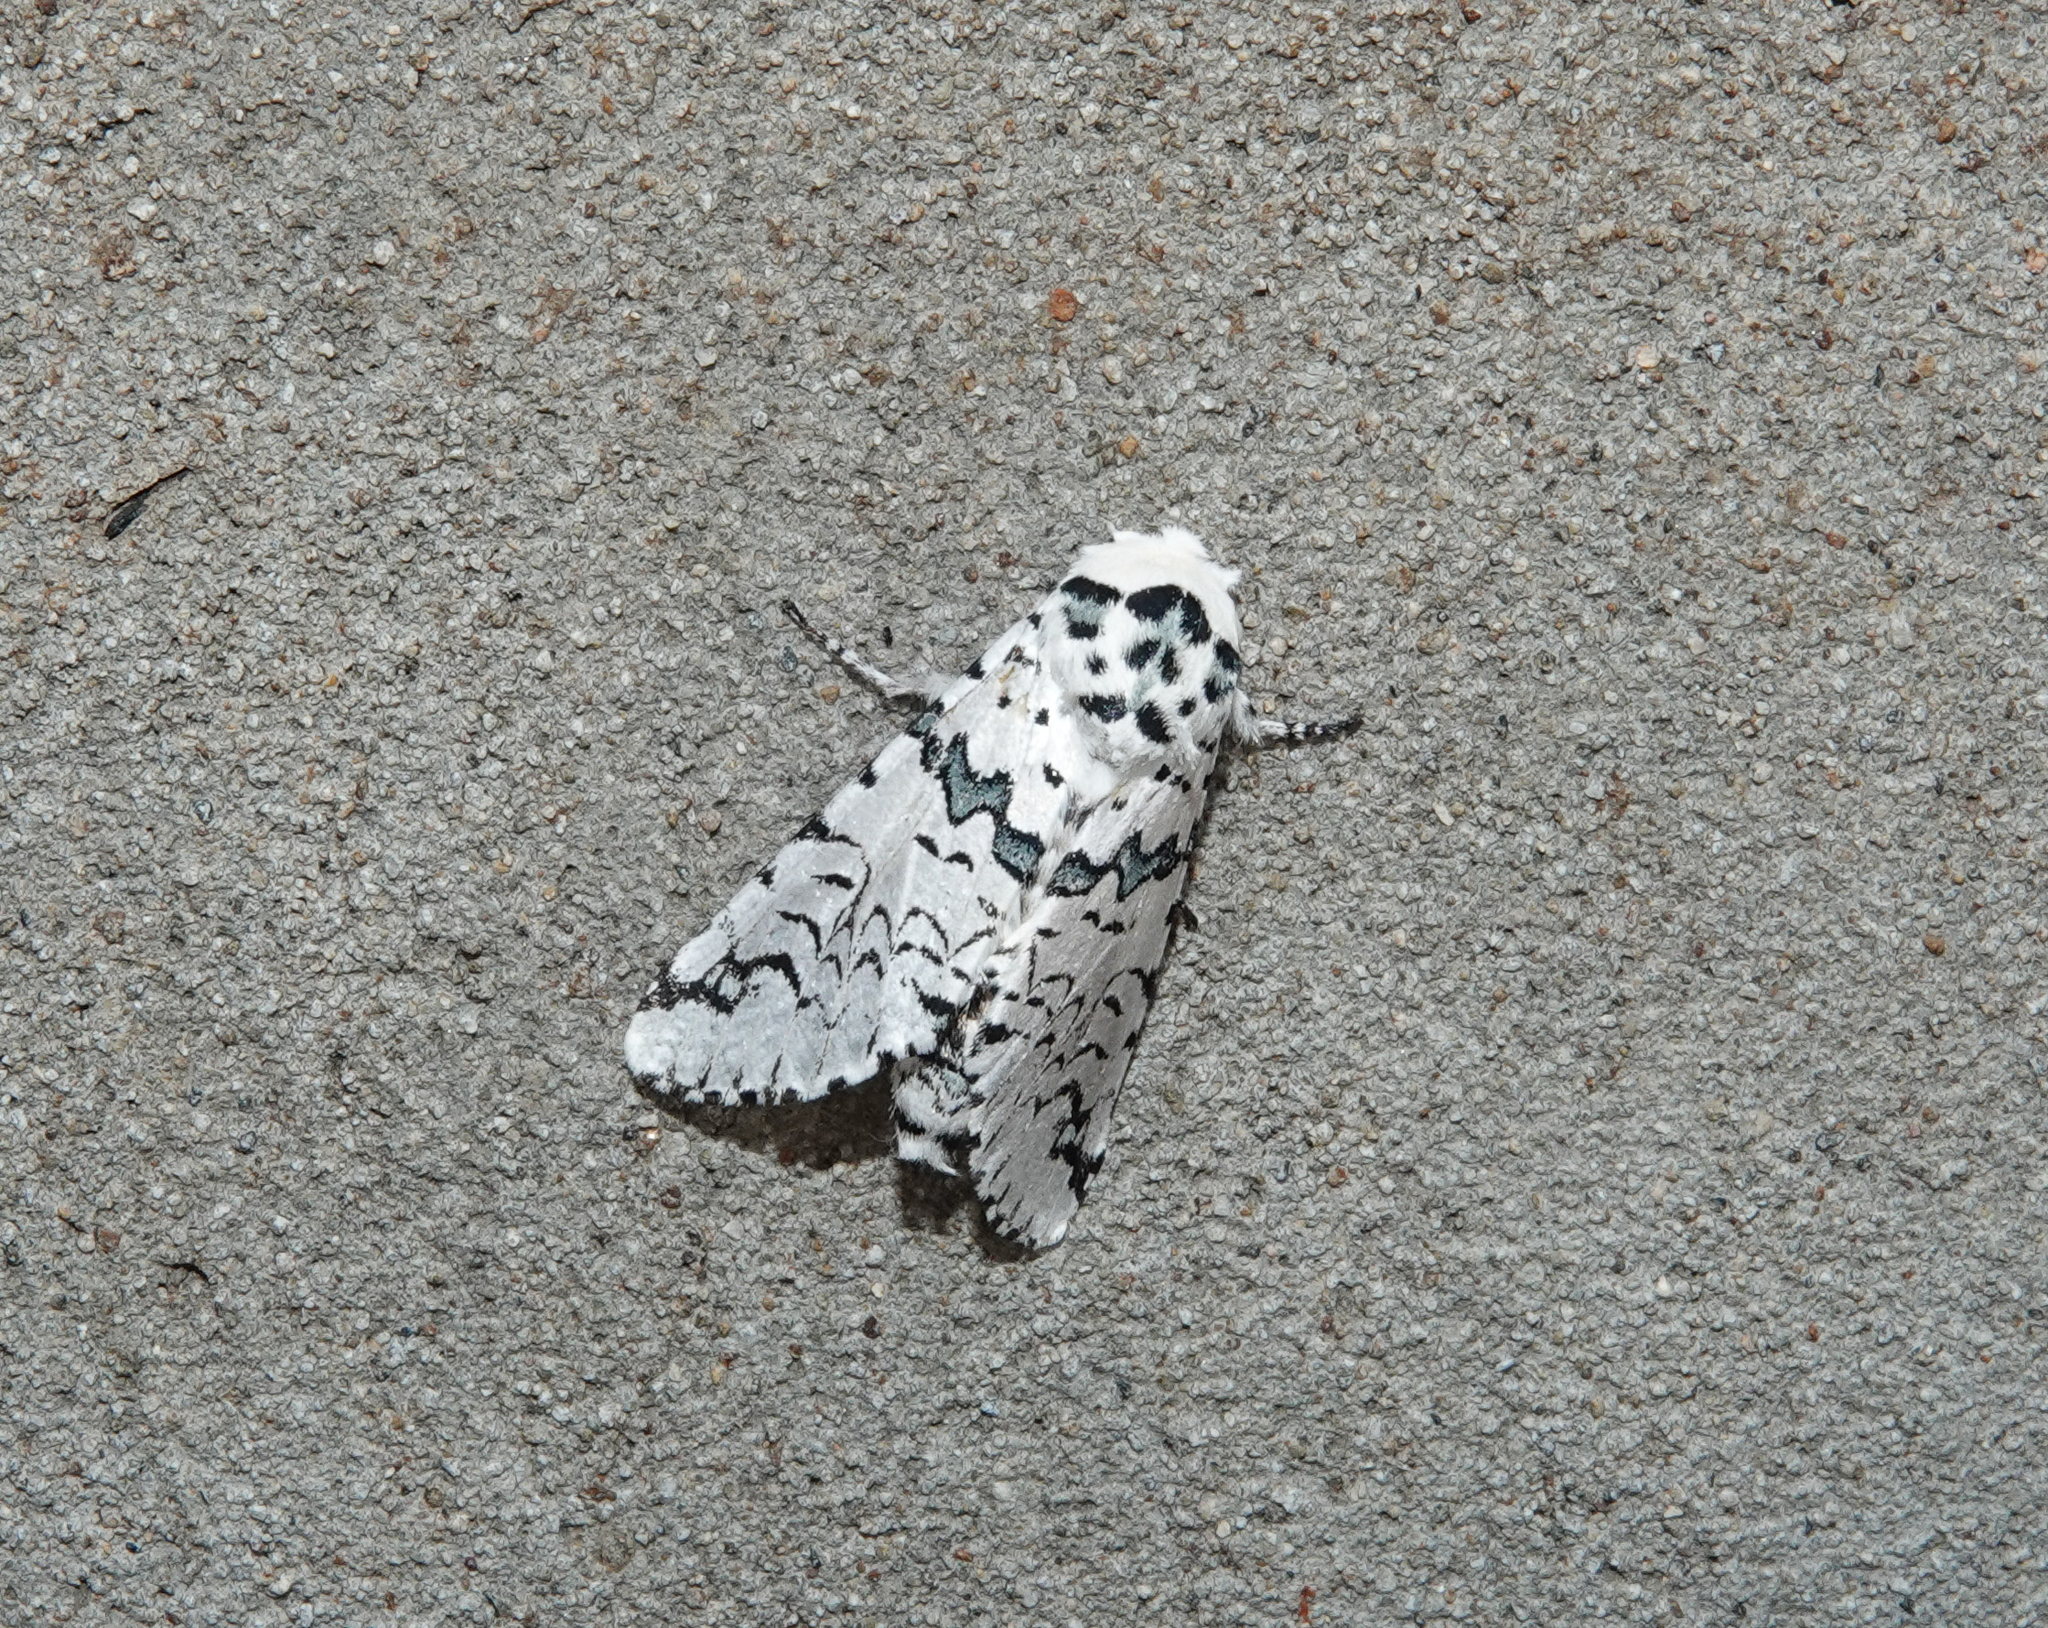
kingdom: Animalia
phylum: Arthropoda
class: Insecta
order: Lepidoptera
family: Notodontidae
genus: Neocerura
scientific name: Neocerura liturata
